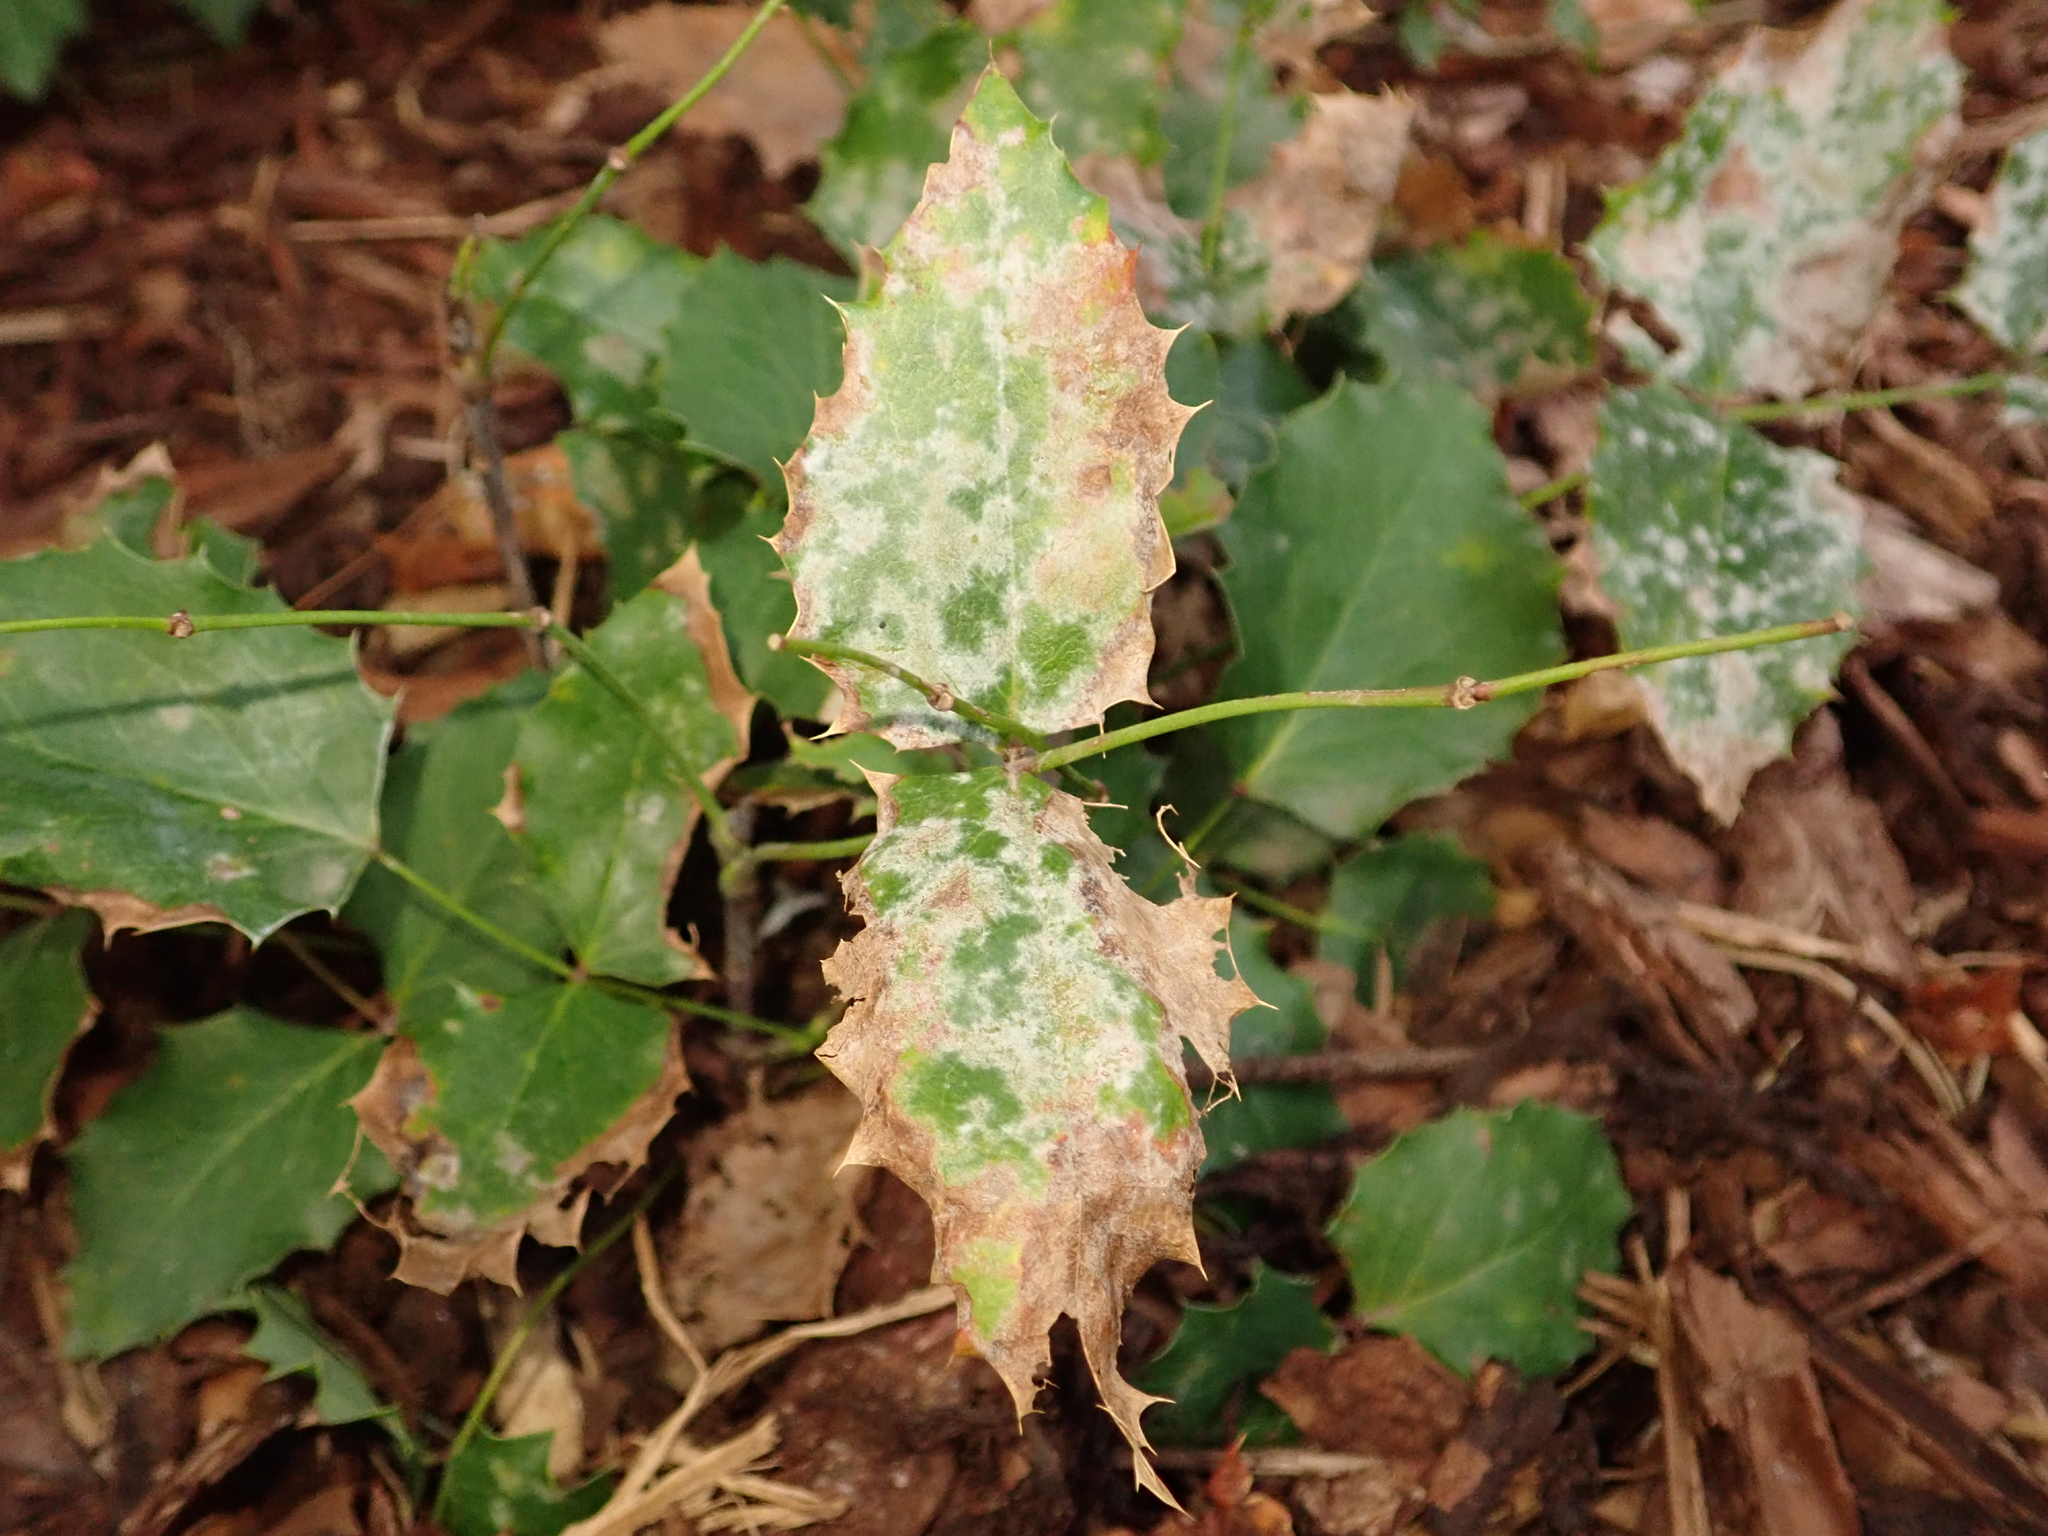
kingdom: Plantae
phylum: Tracheophyta
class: Magnoliopsida
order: Ranunculales
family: Berberidaceae
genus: Mahonia
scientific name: Mahonia aquifolium
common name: Oregon-grape
